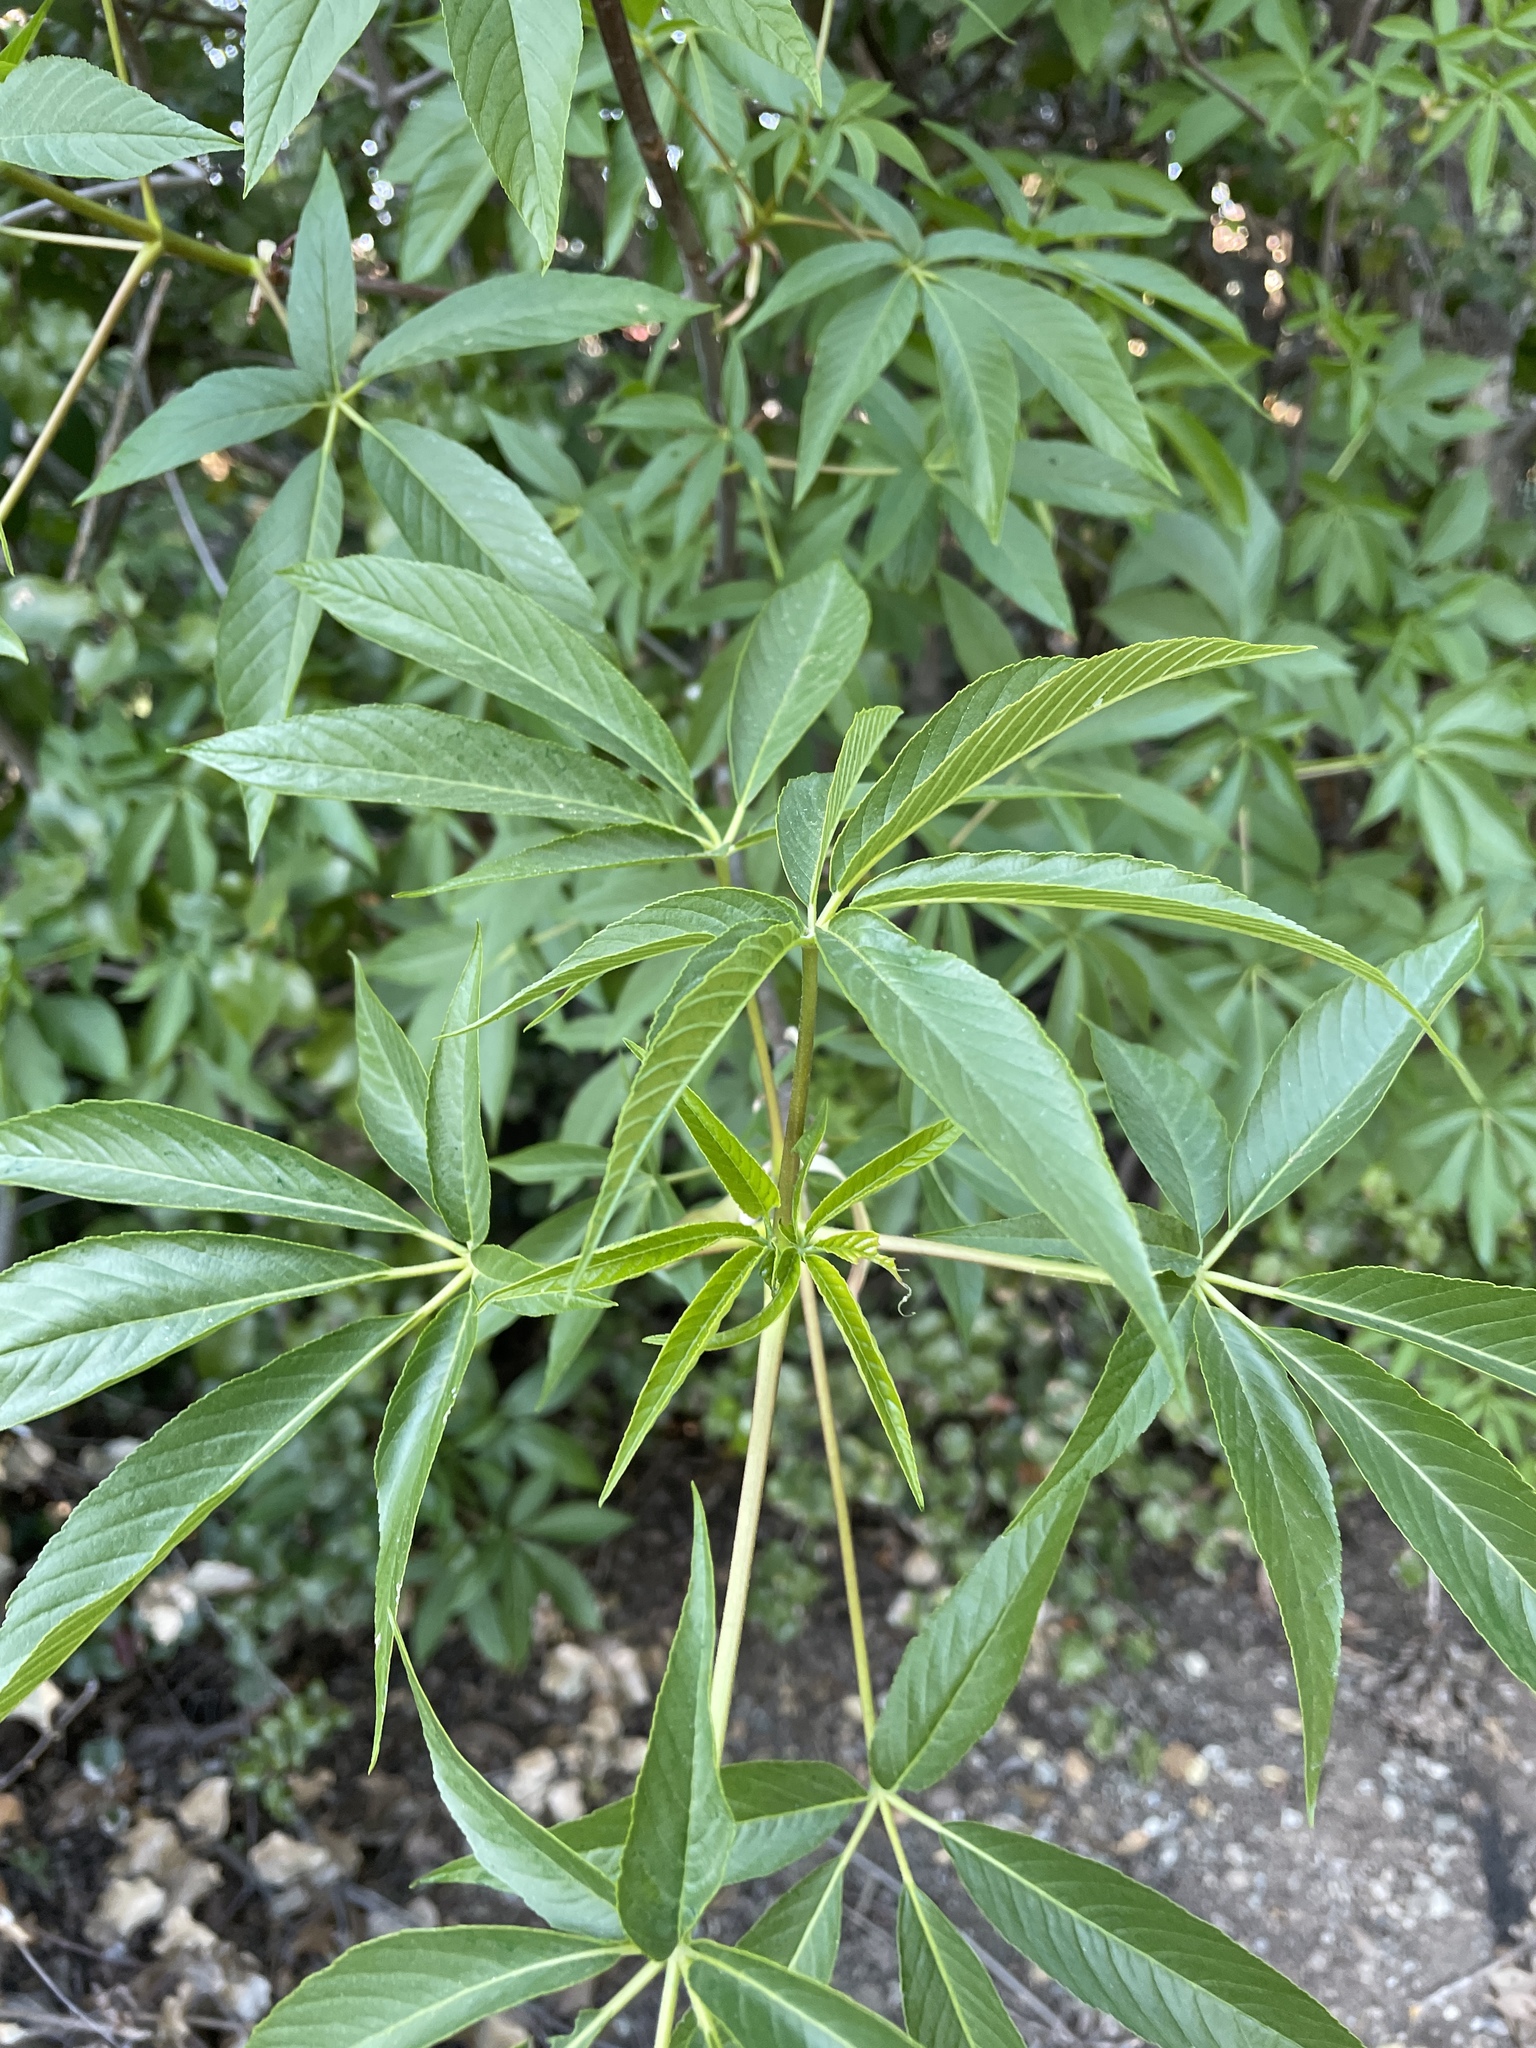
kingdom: Plantae
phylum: Tracheophyta
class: Magnoliopsida
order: Sapindales
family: Sapindaceae
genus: Aesculus
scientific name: Aesculus californica
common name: California buckeye
